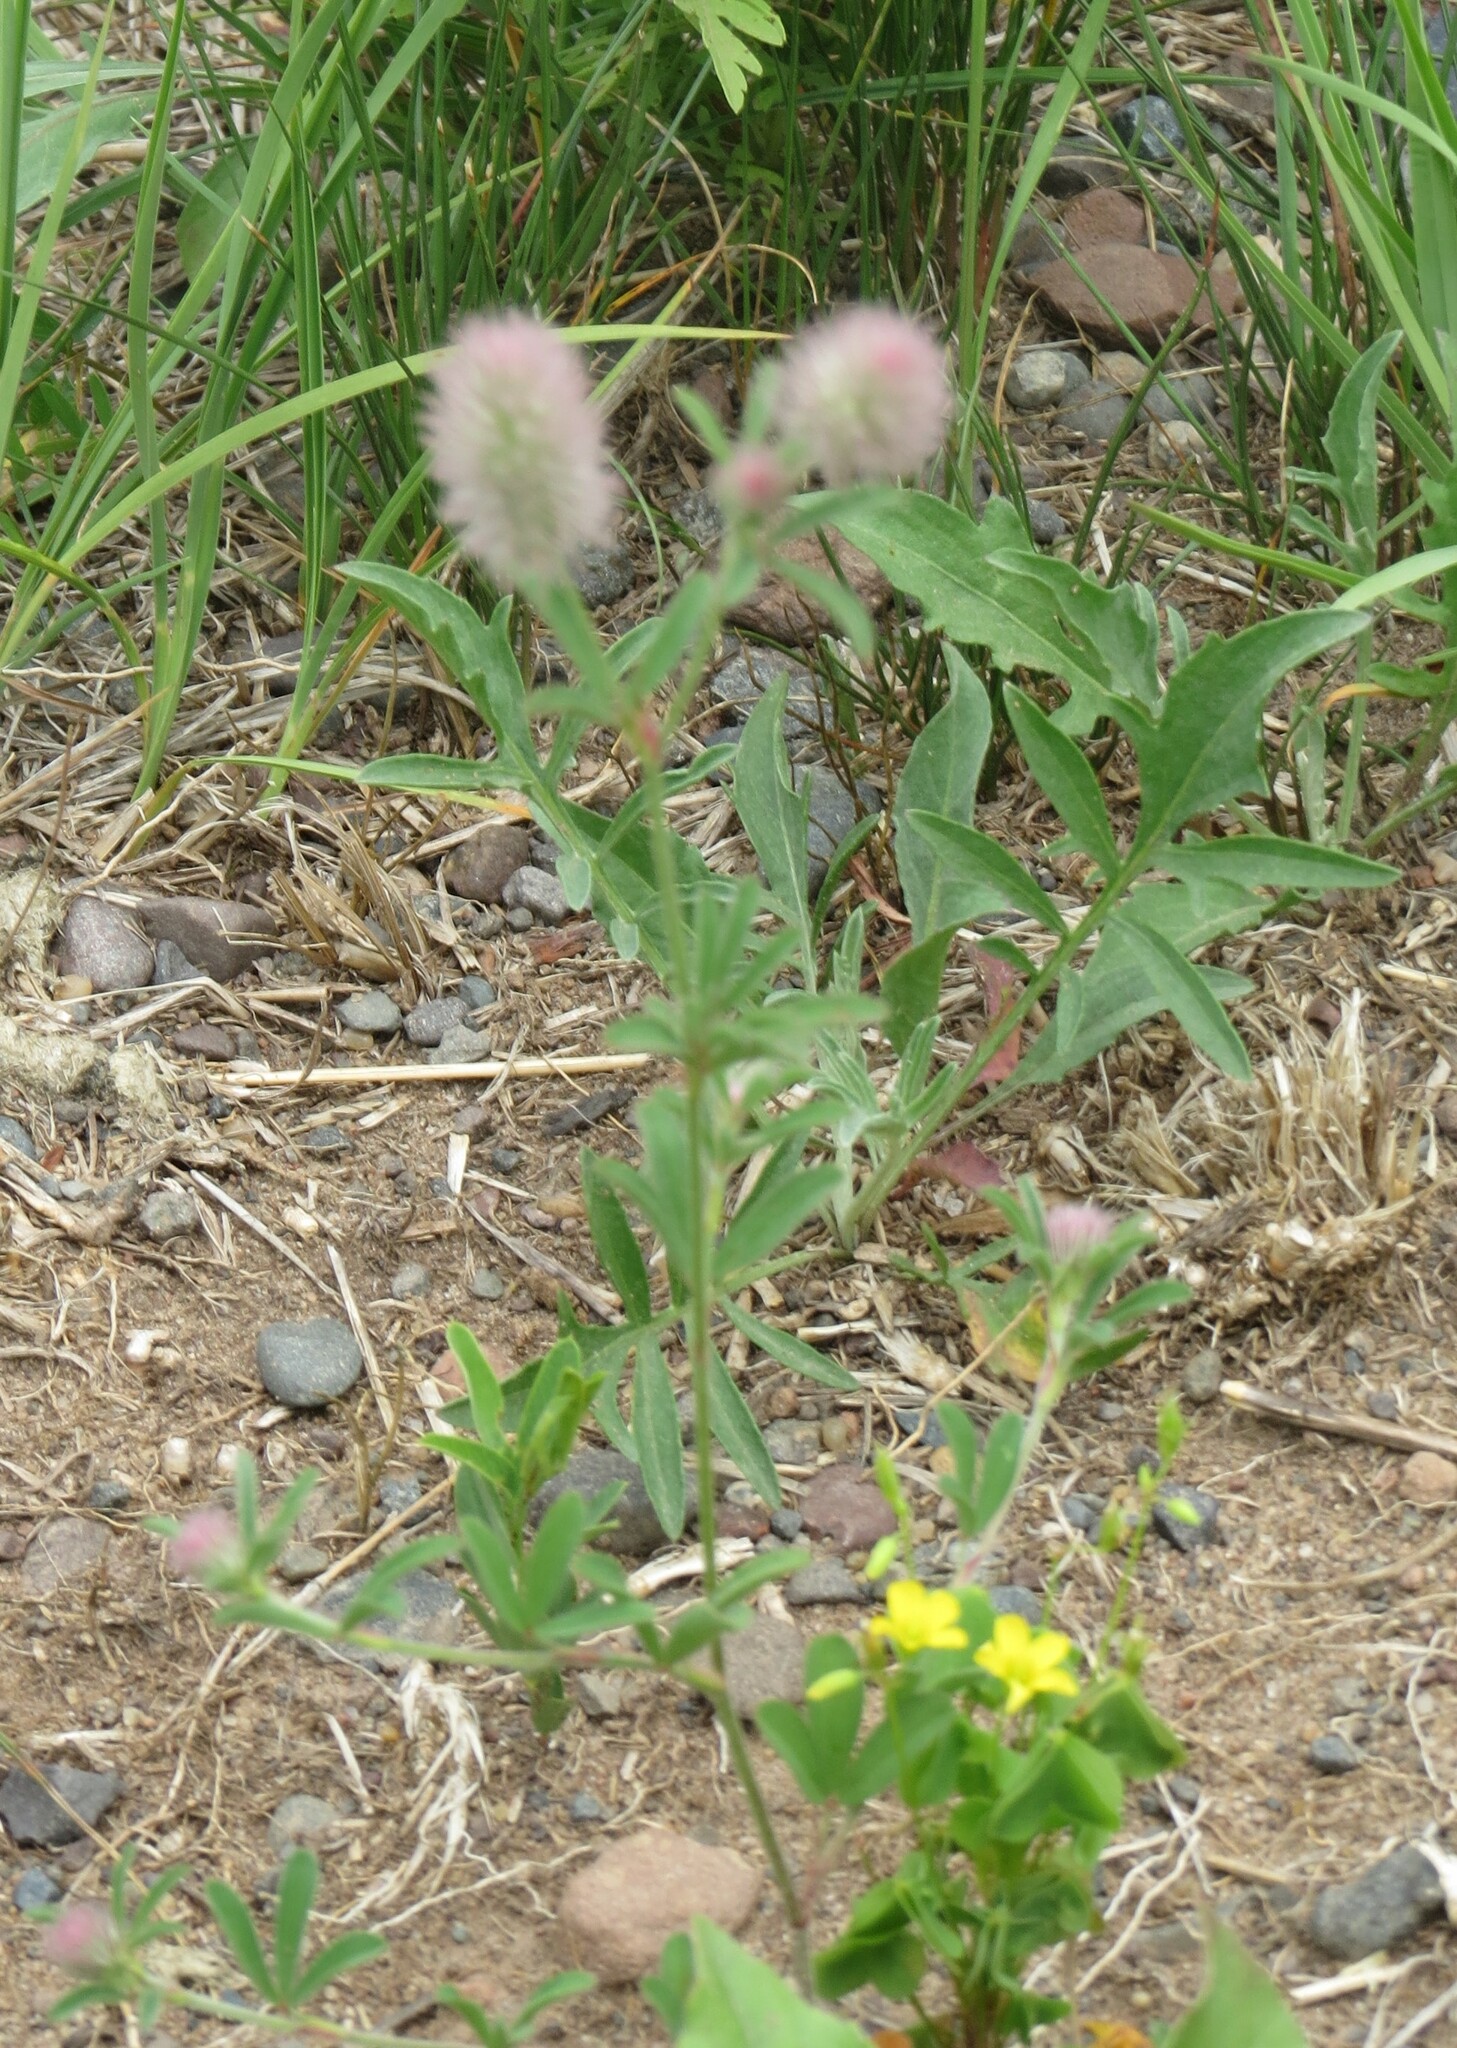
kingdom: Plantae
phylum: Tracheophyta
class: Magnoliopsida
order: Fabales
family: Fabaceae
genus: Trifolium
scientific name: Trifolium arvense
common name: Hare's-foot clover
